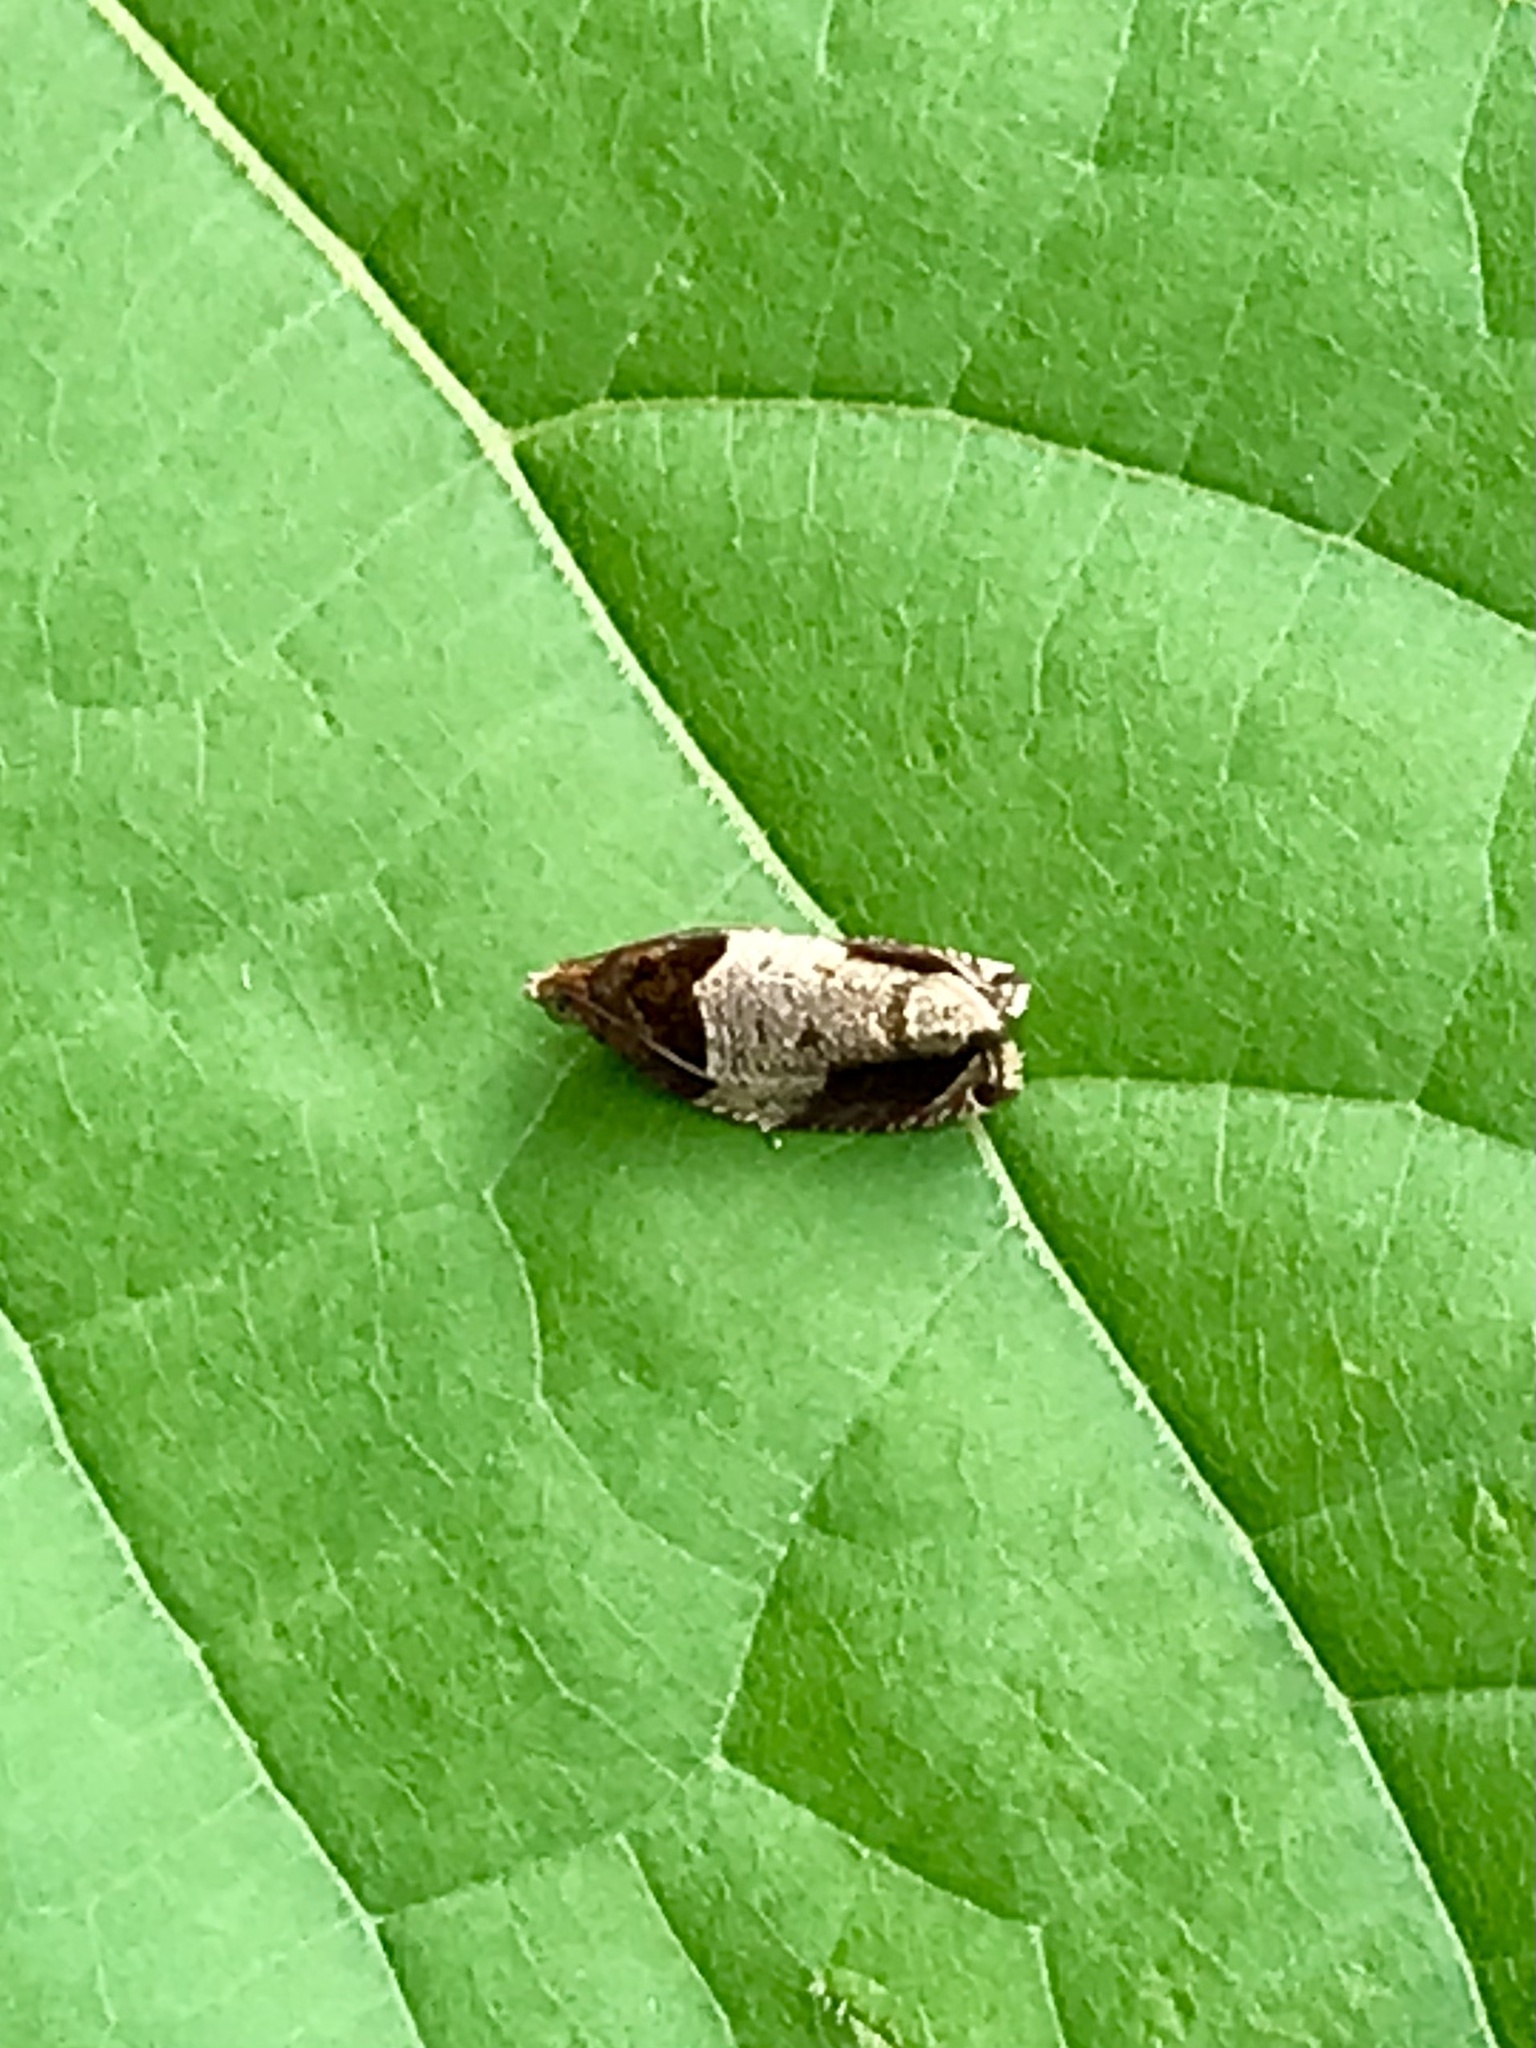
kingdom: Animalia
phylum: Arthropoda
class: Insecta
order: Lepidoptera
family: Tortricidae
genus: Olethreutes
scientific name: Olethreutes ferriferana
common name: Hydrangea leaftier moth
